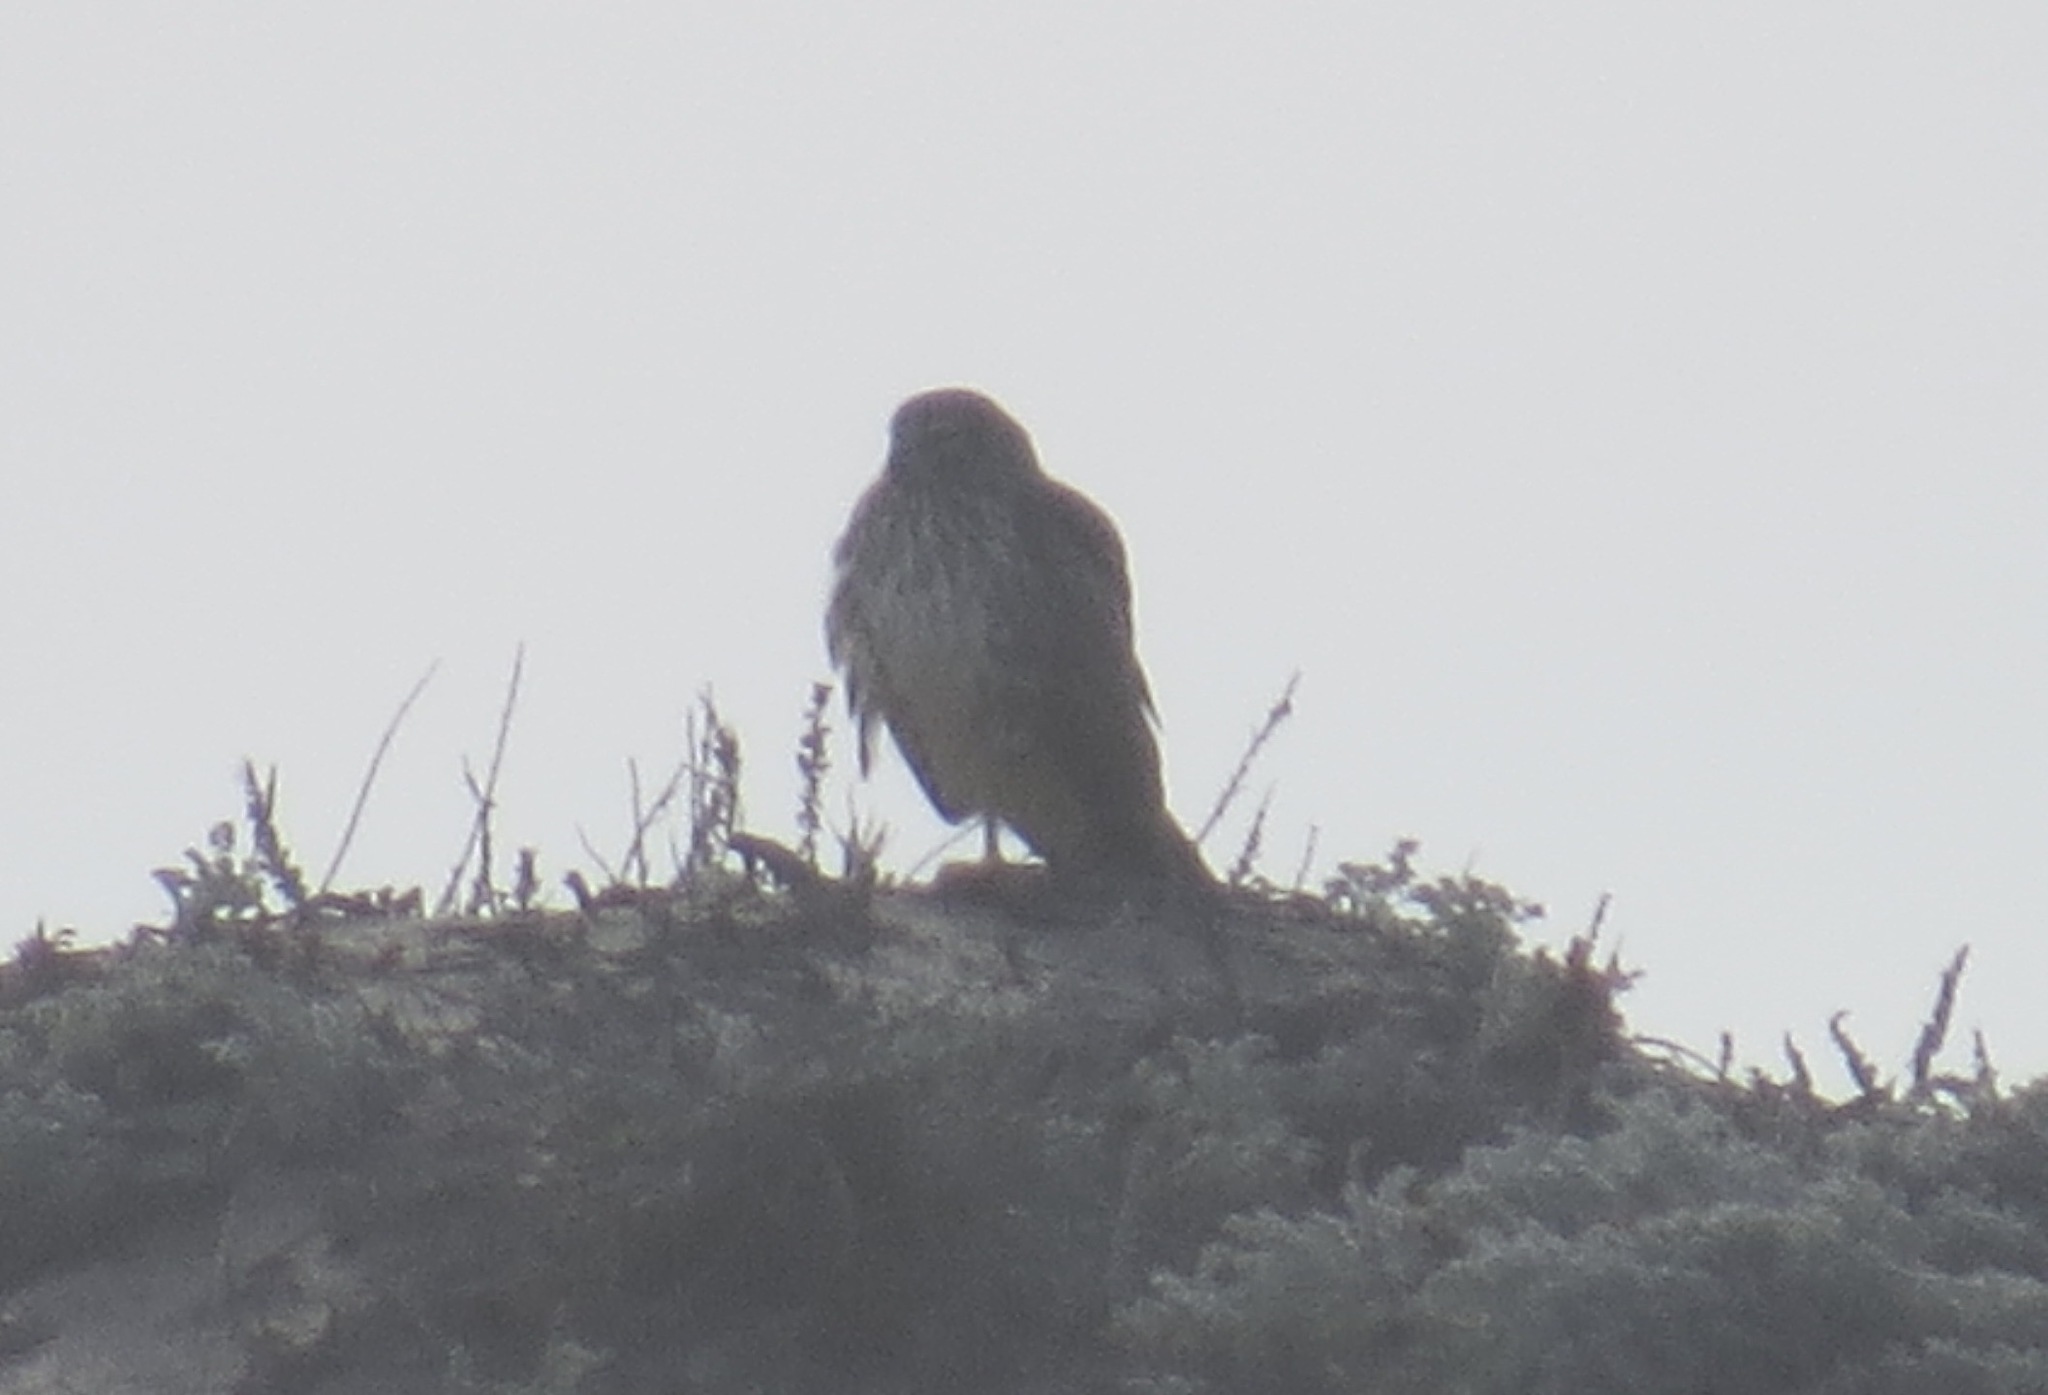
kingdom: Animalia
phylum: Chordata
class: Aves
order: Accipitriformes
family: Accipitridae
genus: Circus
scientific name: Circus cyaneus
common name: Hen harrier
